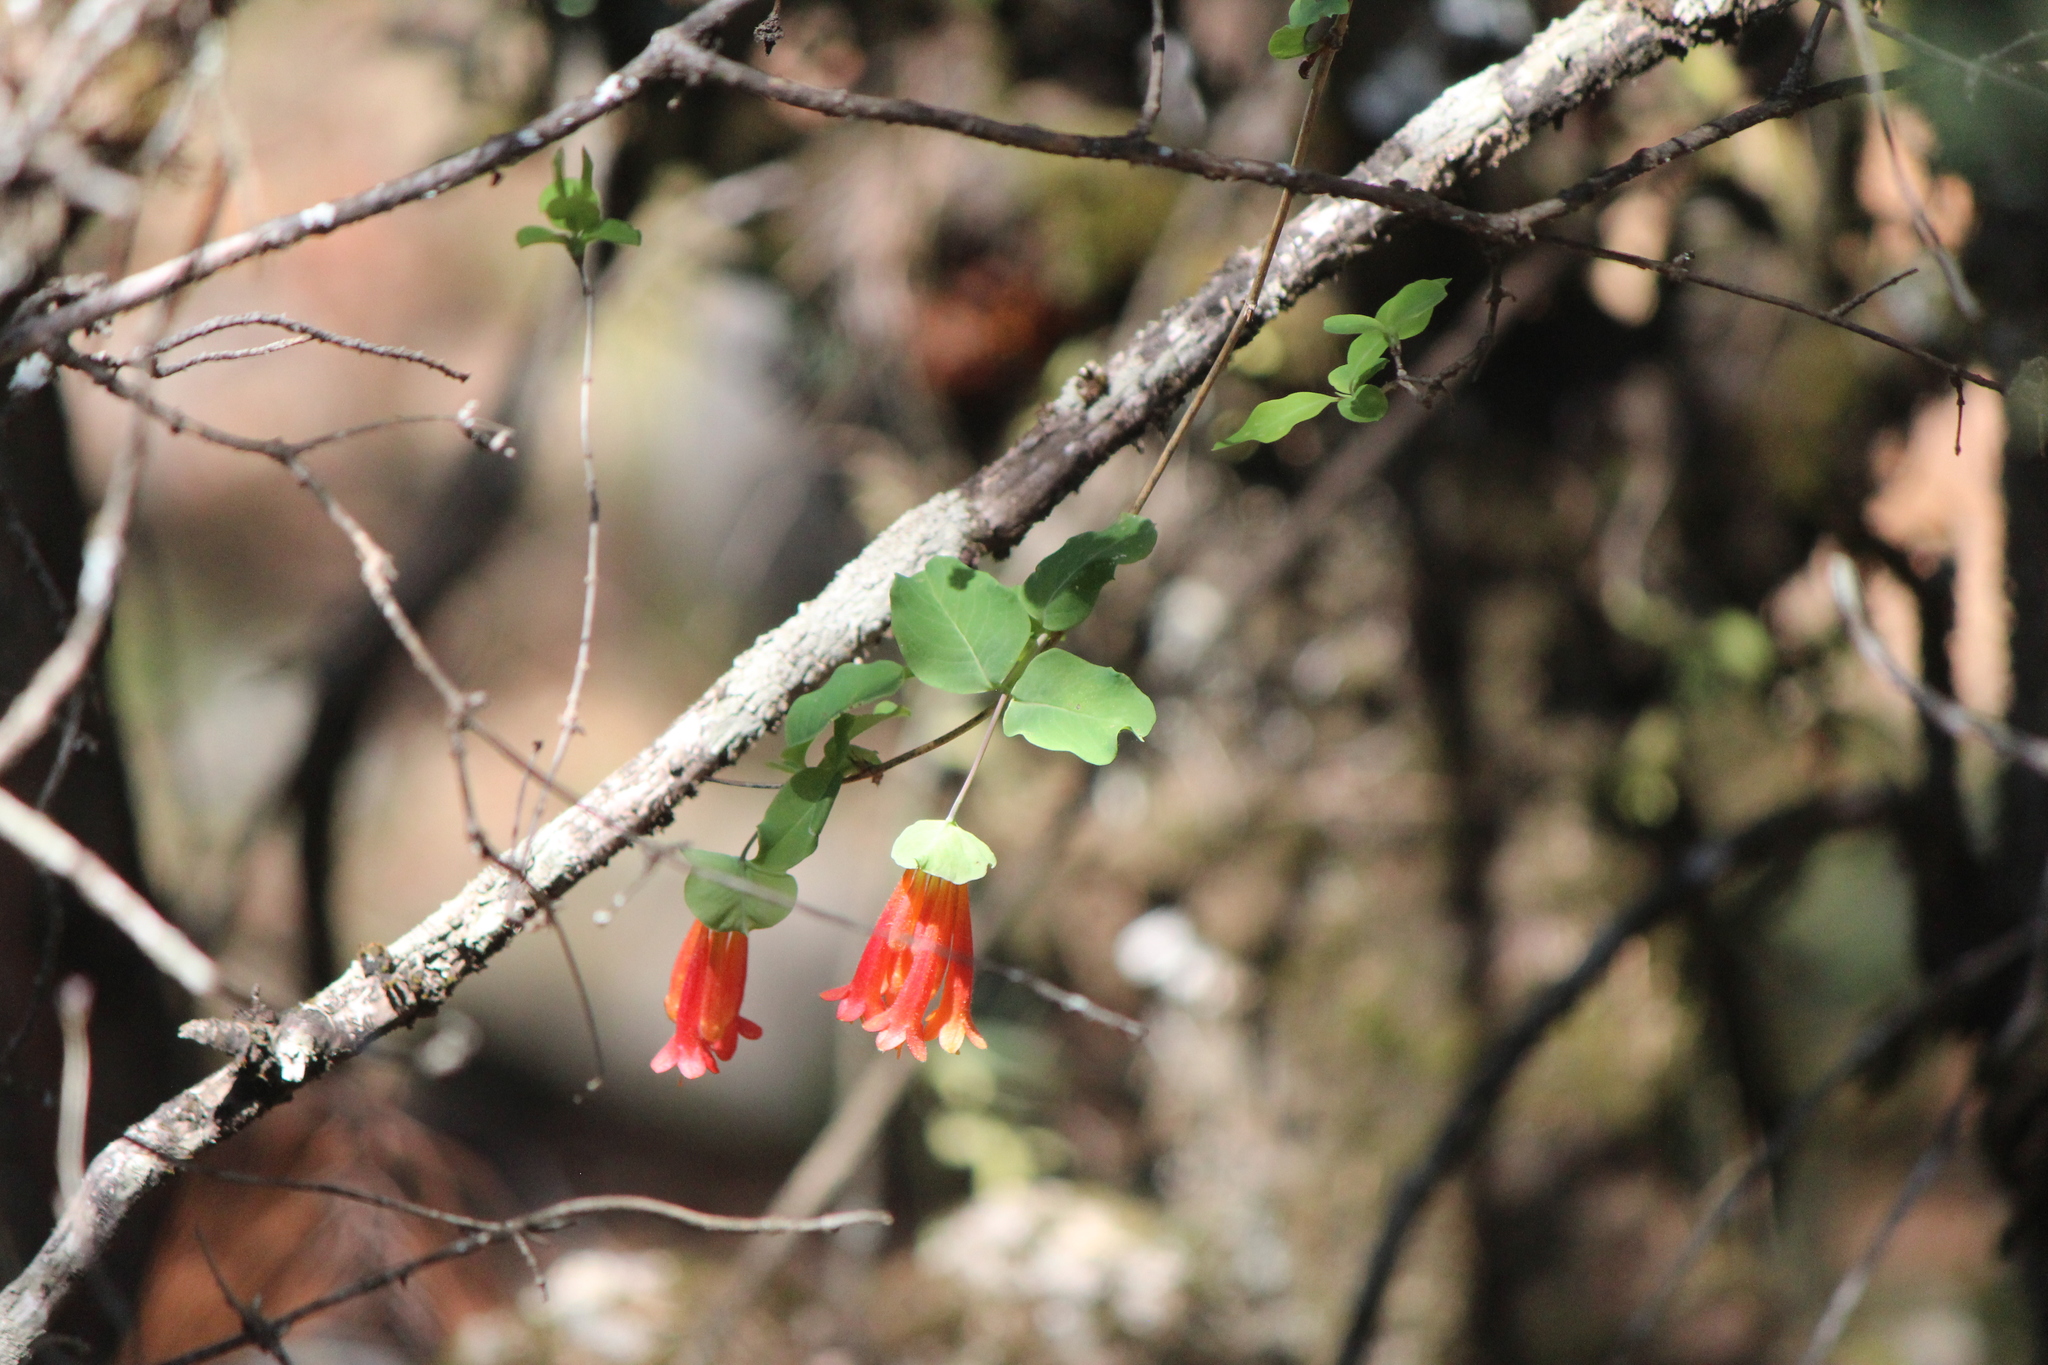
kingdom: Plantae
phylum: Tracheophyta
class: Magnoliopsida
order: Dipsacales
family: Caprifoliaceae
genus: Lonicera
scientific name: Lonicera pilosa
